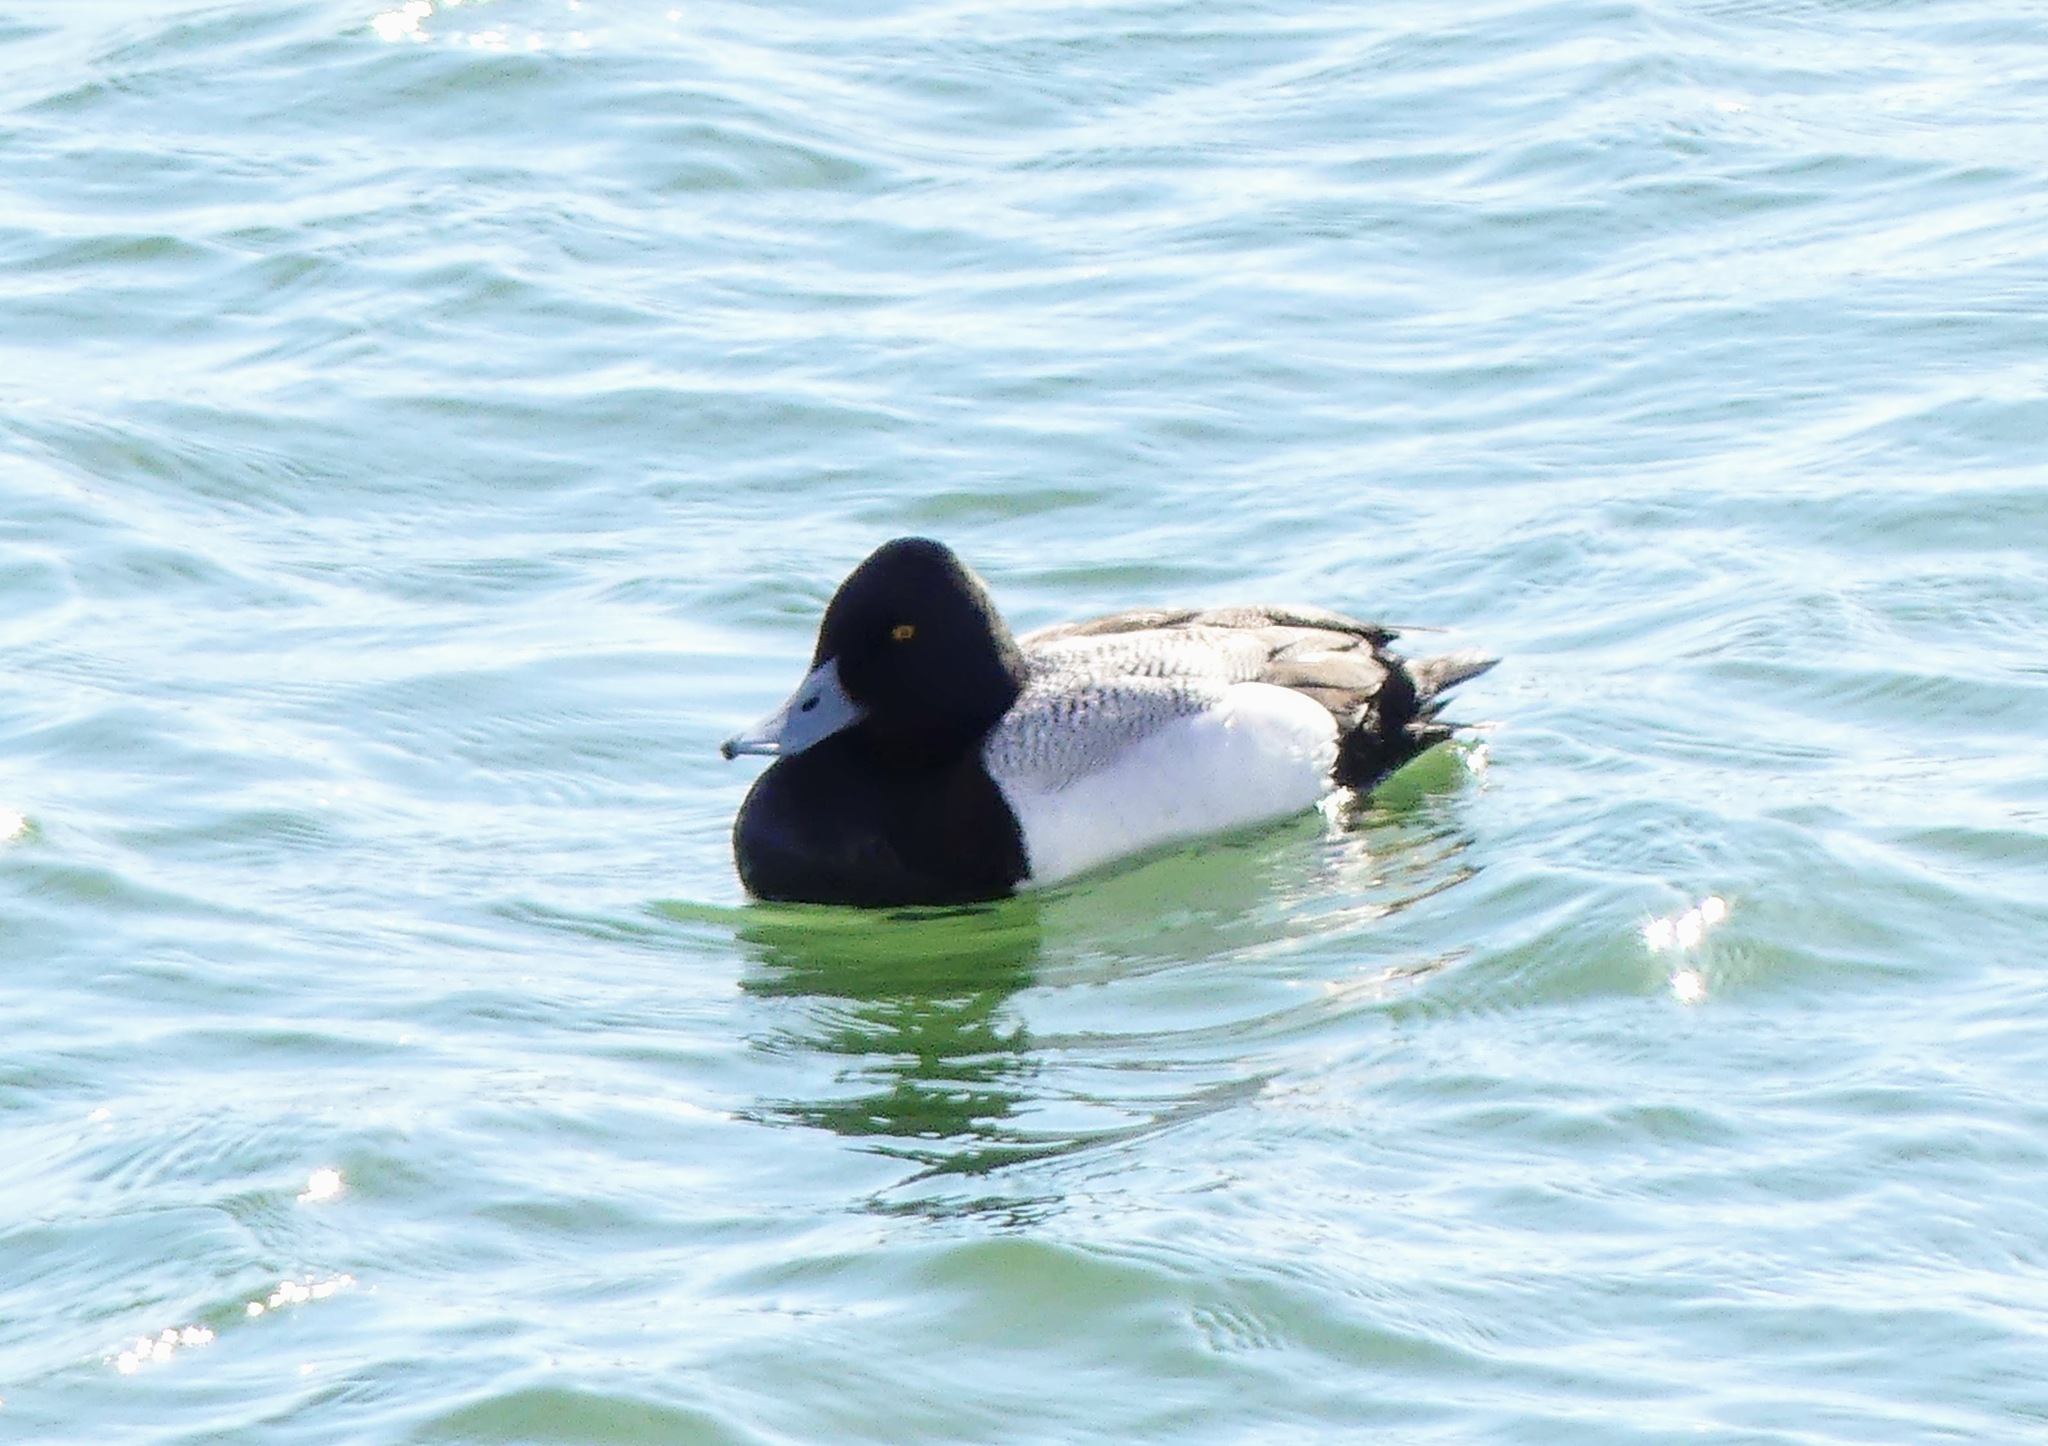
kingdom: Animalia
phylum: Chordata
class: Aves
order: Anseriformes
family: Anatidae
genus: Aythya
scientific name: Aythya affinis
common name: Lesser scaup
